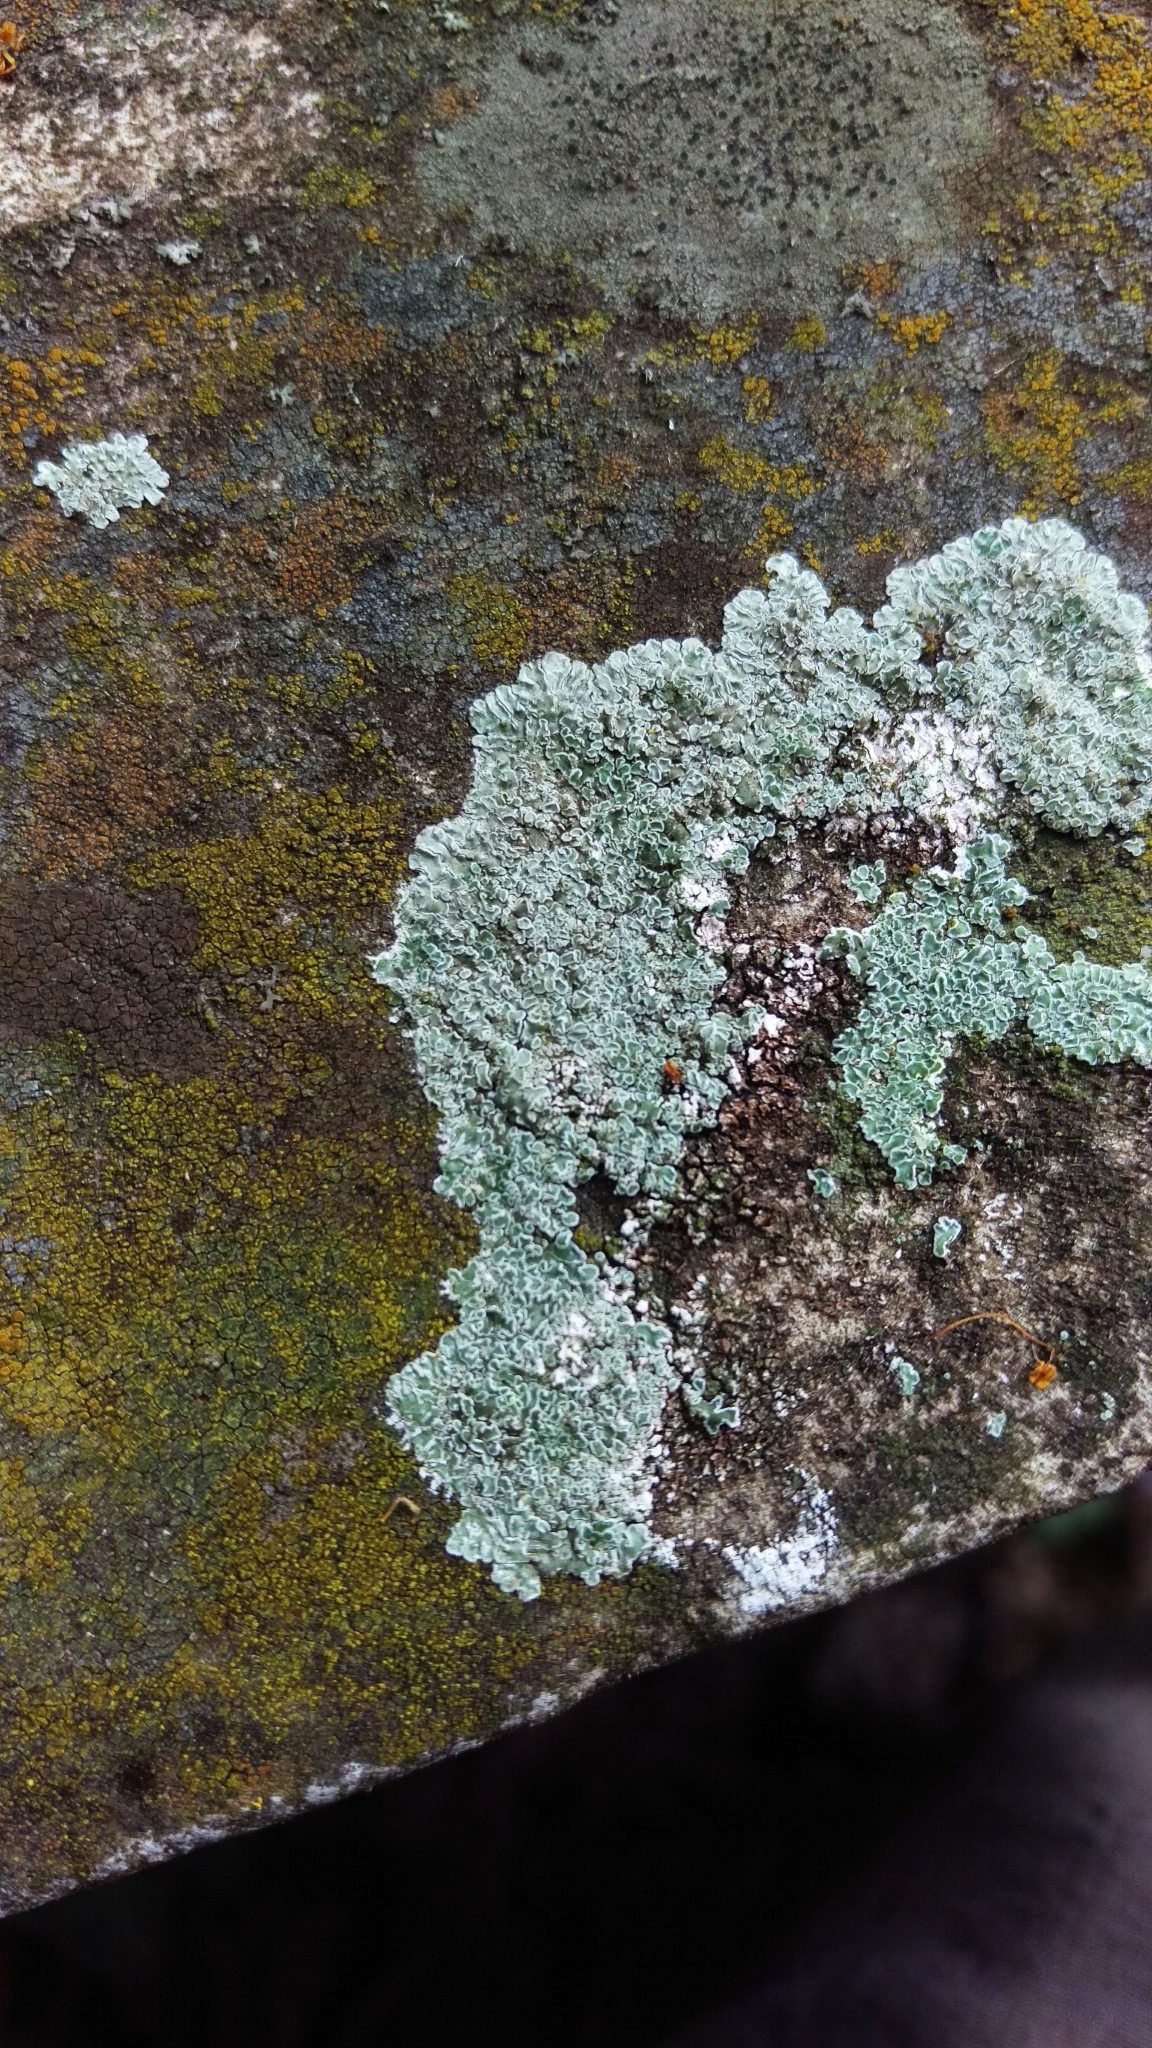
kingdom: Fungi
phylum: Ascomycota
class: Lecanoromycetes
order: Lecanorales
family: Lecanoraceae
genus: Protoparmeliopsis
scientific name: Protoparmeliopsis muralis
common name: Stonewall rim lichen
